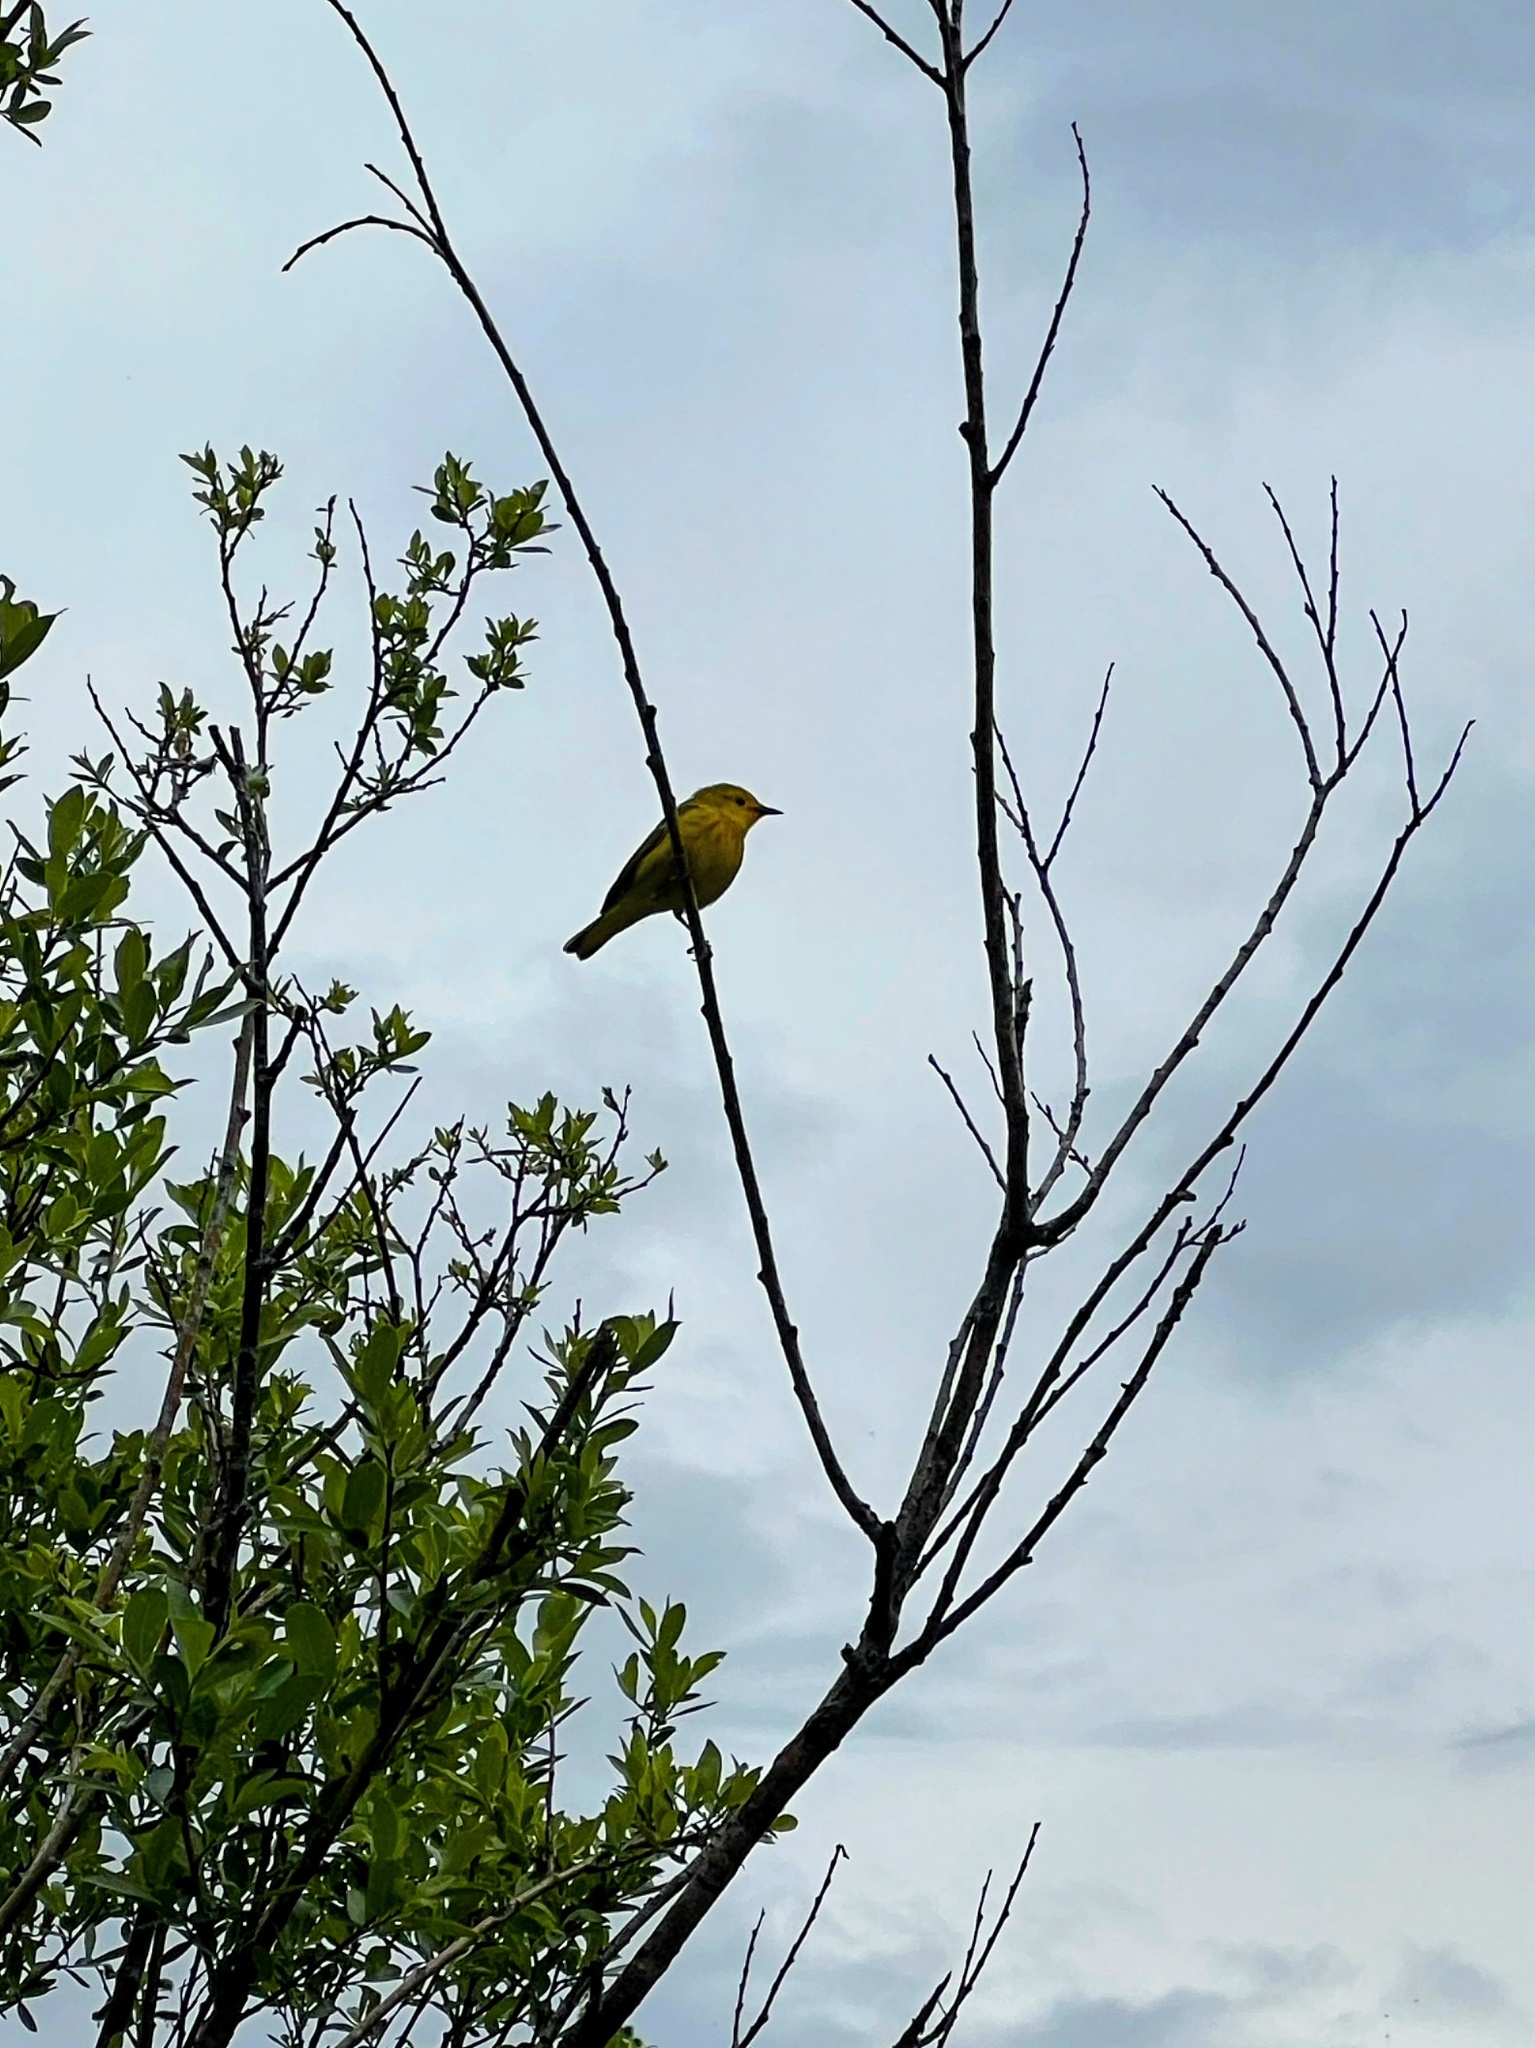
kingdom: Animalia
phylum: Chordata
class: Aves
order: Passeriformes
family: Parulidae
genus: Setophaga
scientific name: Setophaga petechia
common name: Yellow warbler
